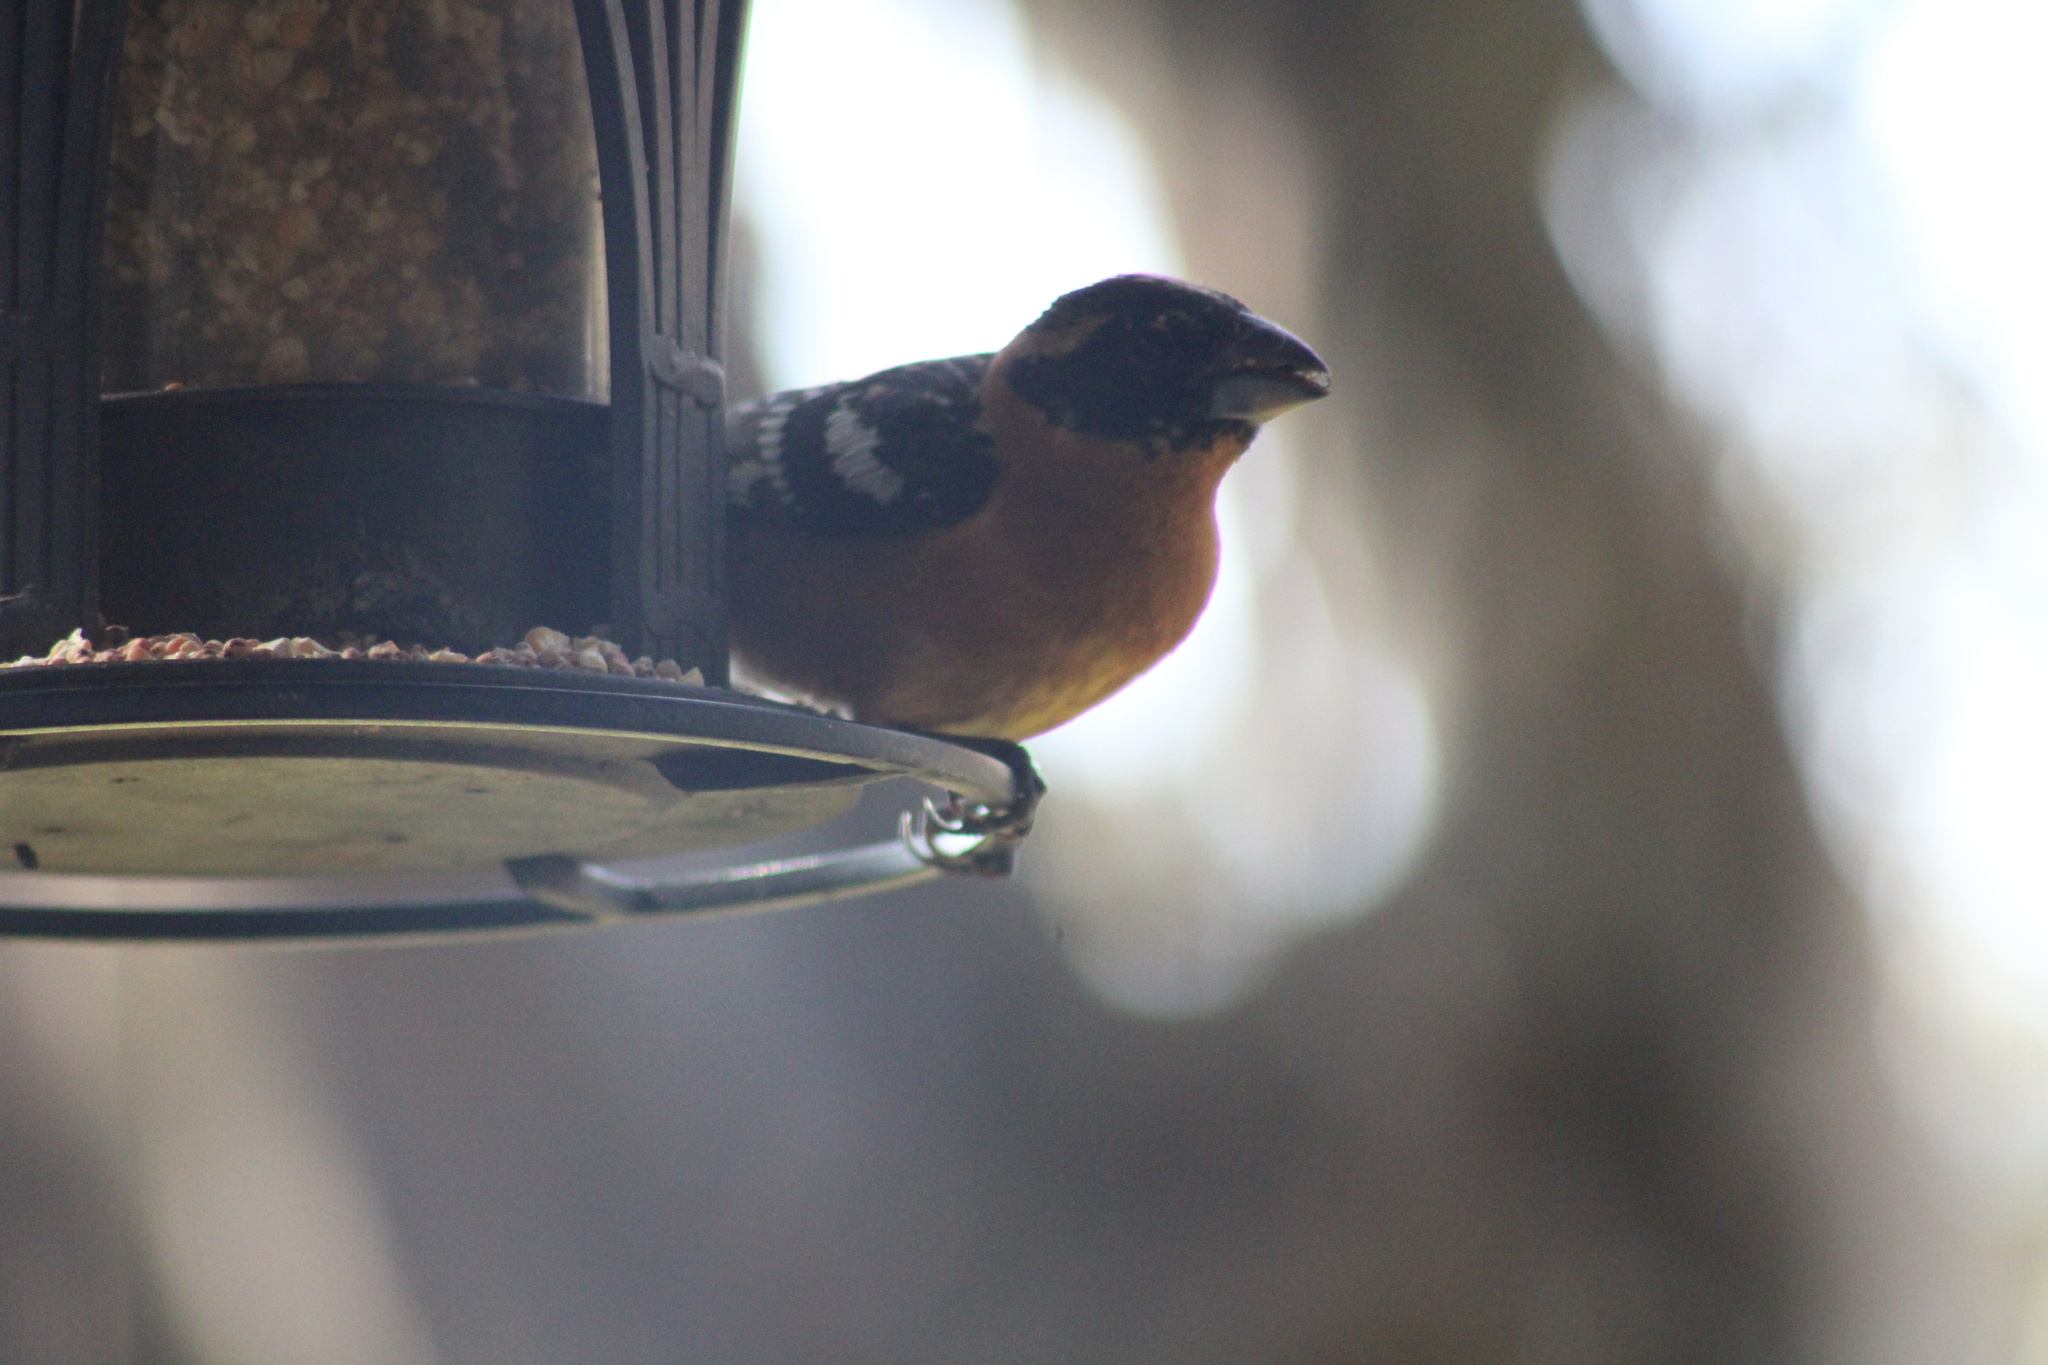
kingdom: Animalia
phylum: Chordata
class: Aves
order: Passeriformes
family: Cardinalidae
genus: Pheucticus
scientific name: Pheucticus melanocephalus
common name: Black-headed grosbeak
